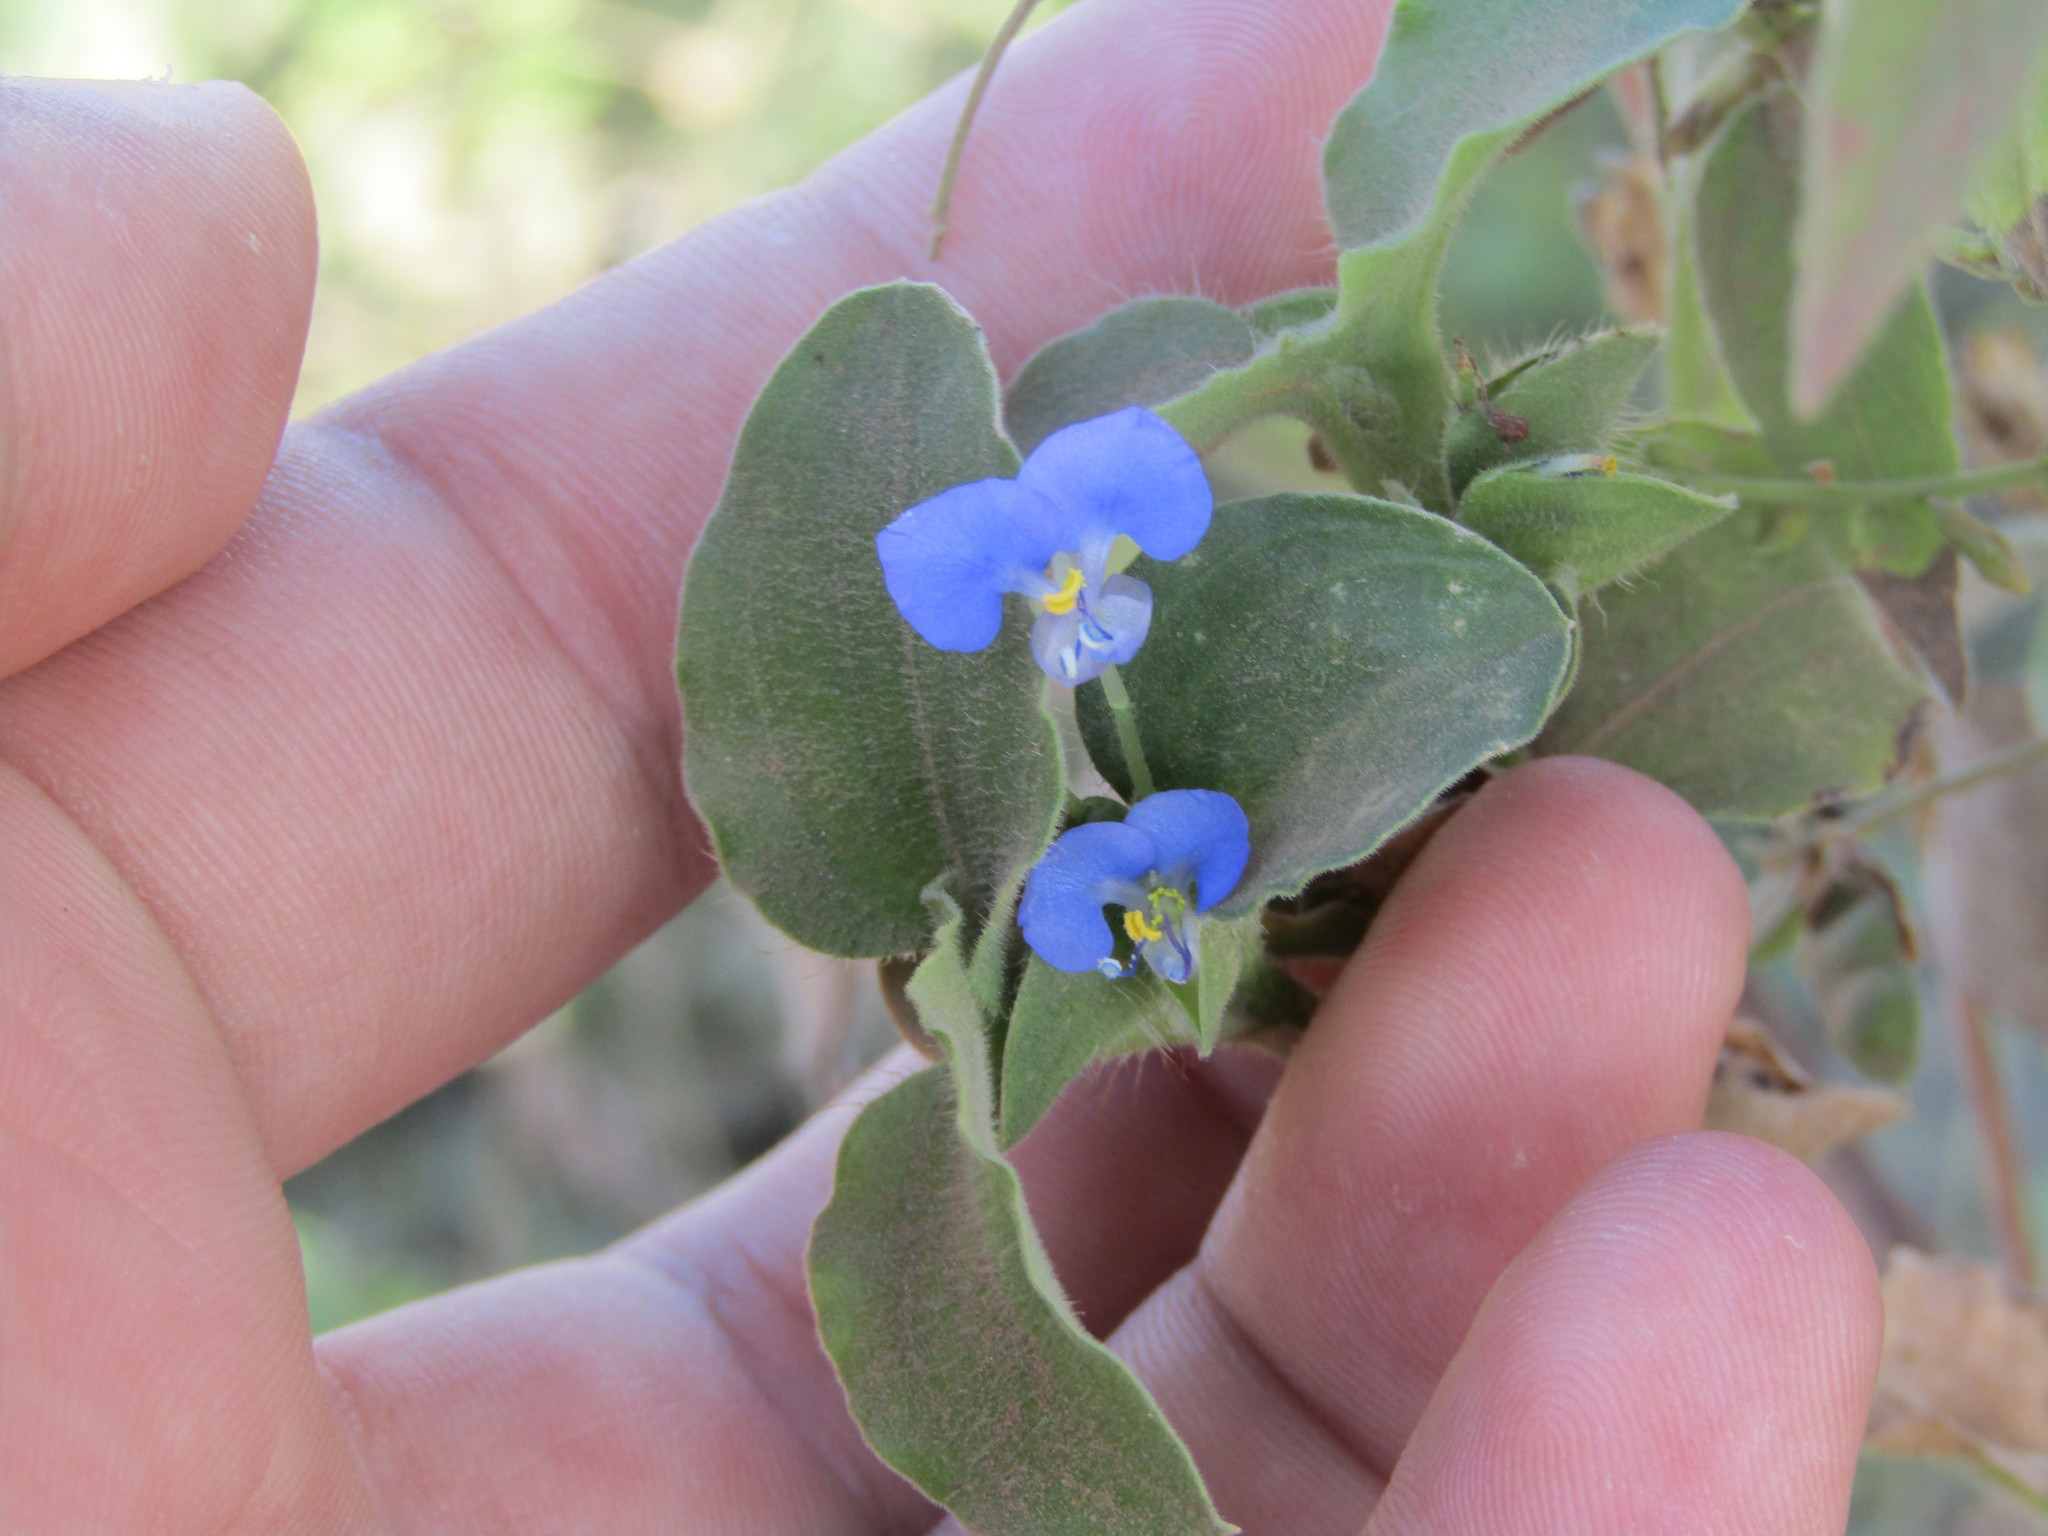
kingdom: Plantae
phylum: Tracheophyta
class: Liliopsida
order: Commelinales
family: Commelinaceae
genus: Commelina
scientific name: Commelina benghalensis
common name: Jio
